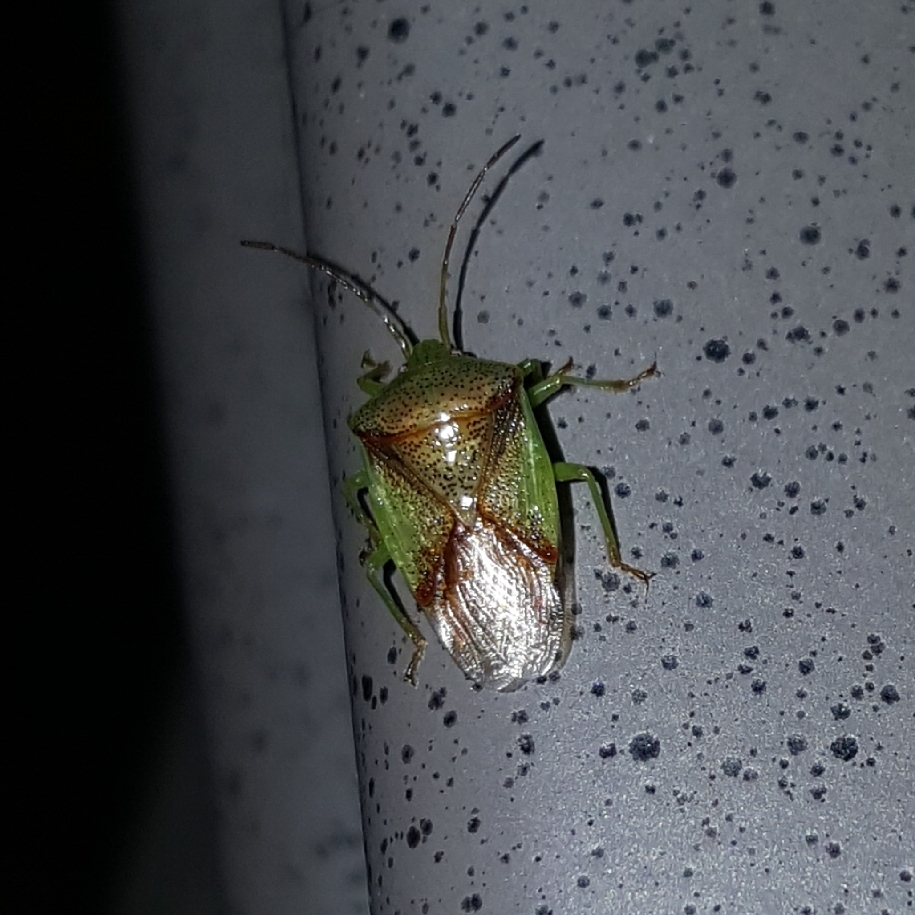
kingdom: Animalia
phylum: Arthropoda
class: Insecta
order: Hemiptera
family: Acanthosomatidae
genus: Elasmostethus
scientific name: Elasmostethus cruciatus
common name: Red-cross shield bug
